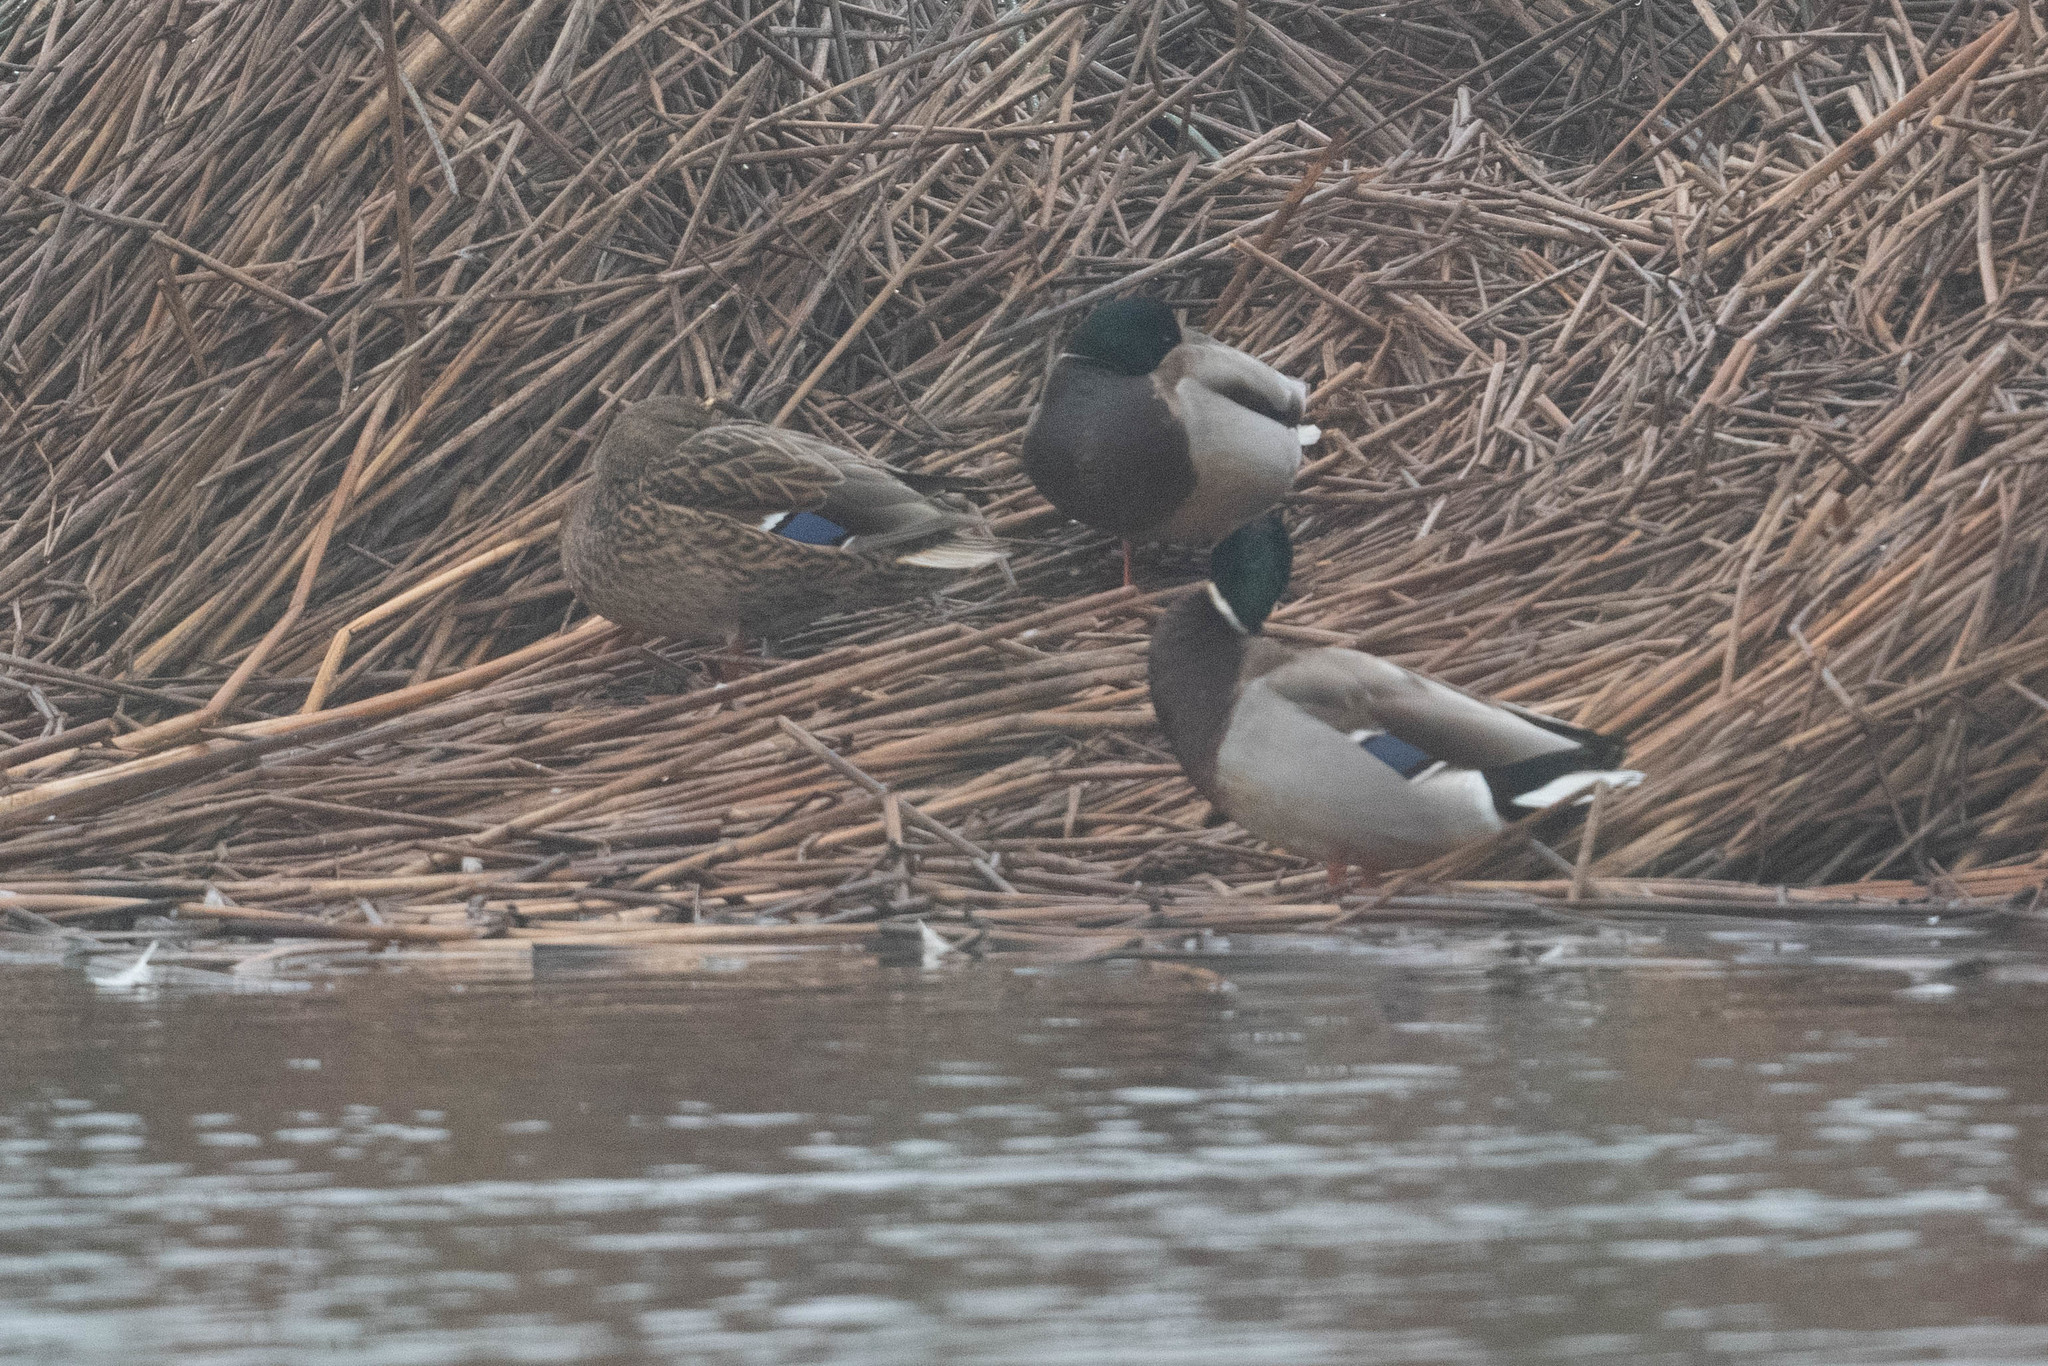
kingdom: Animalia
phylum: Chordata
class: Aves
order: Anseriformes
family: Anatidae
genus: Anas
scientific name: Anas platyrhynchos
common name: Mallard
